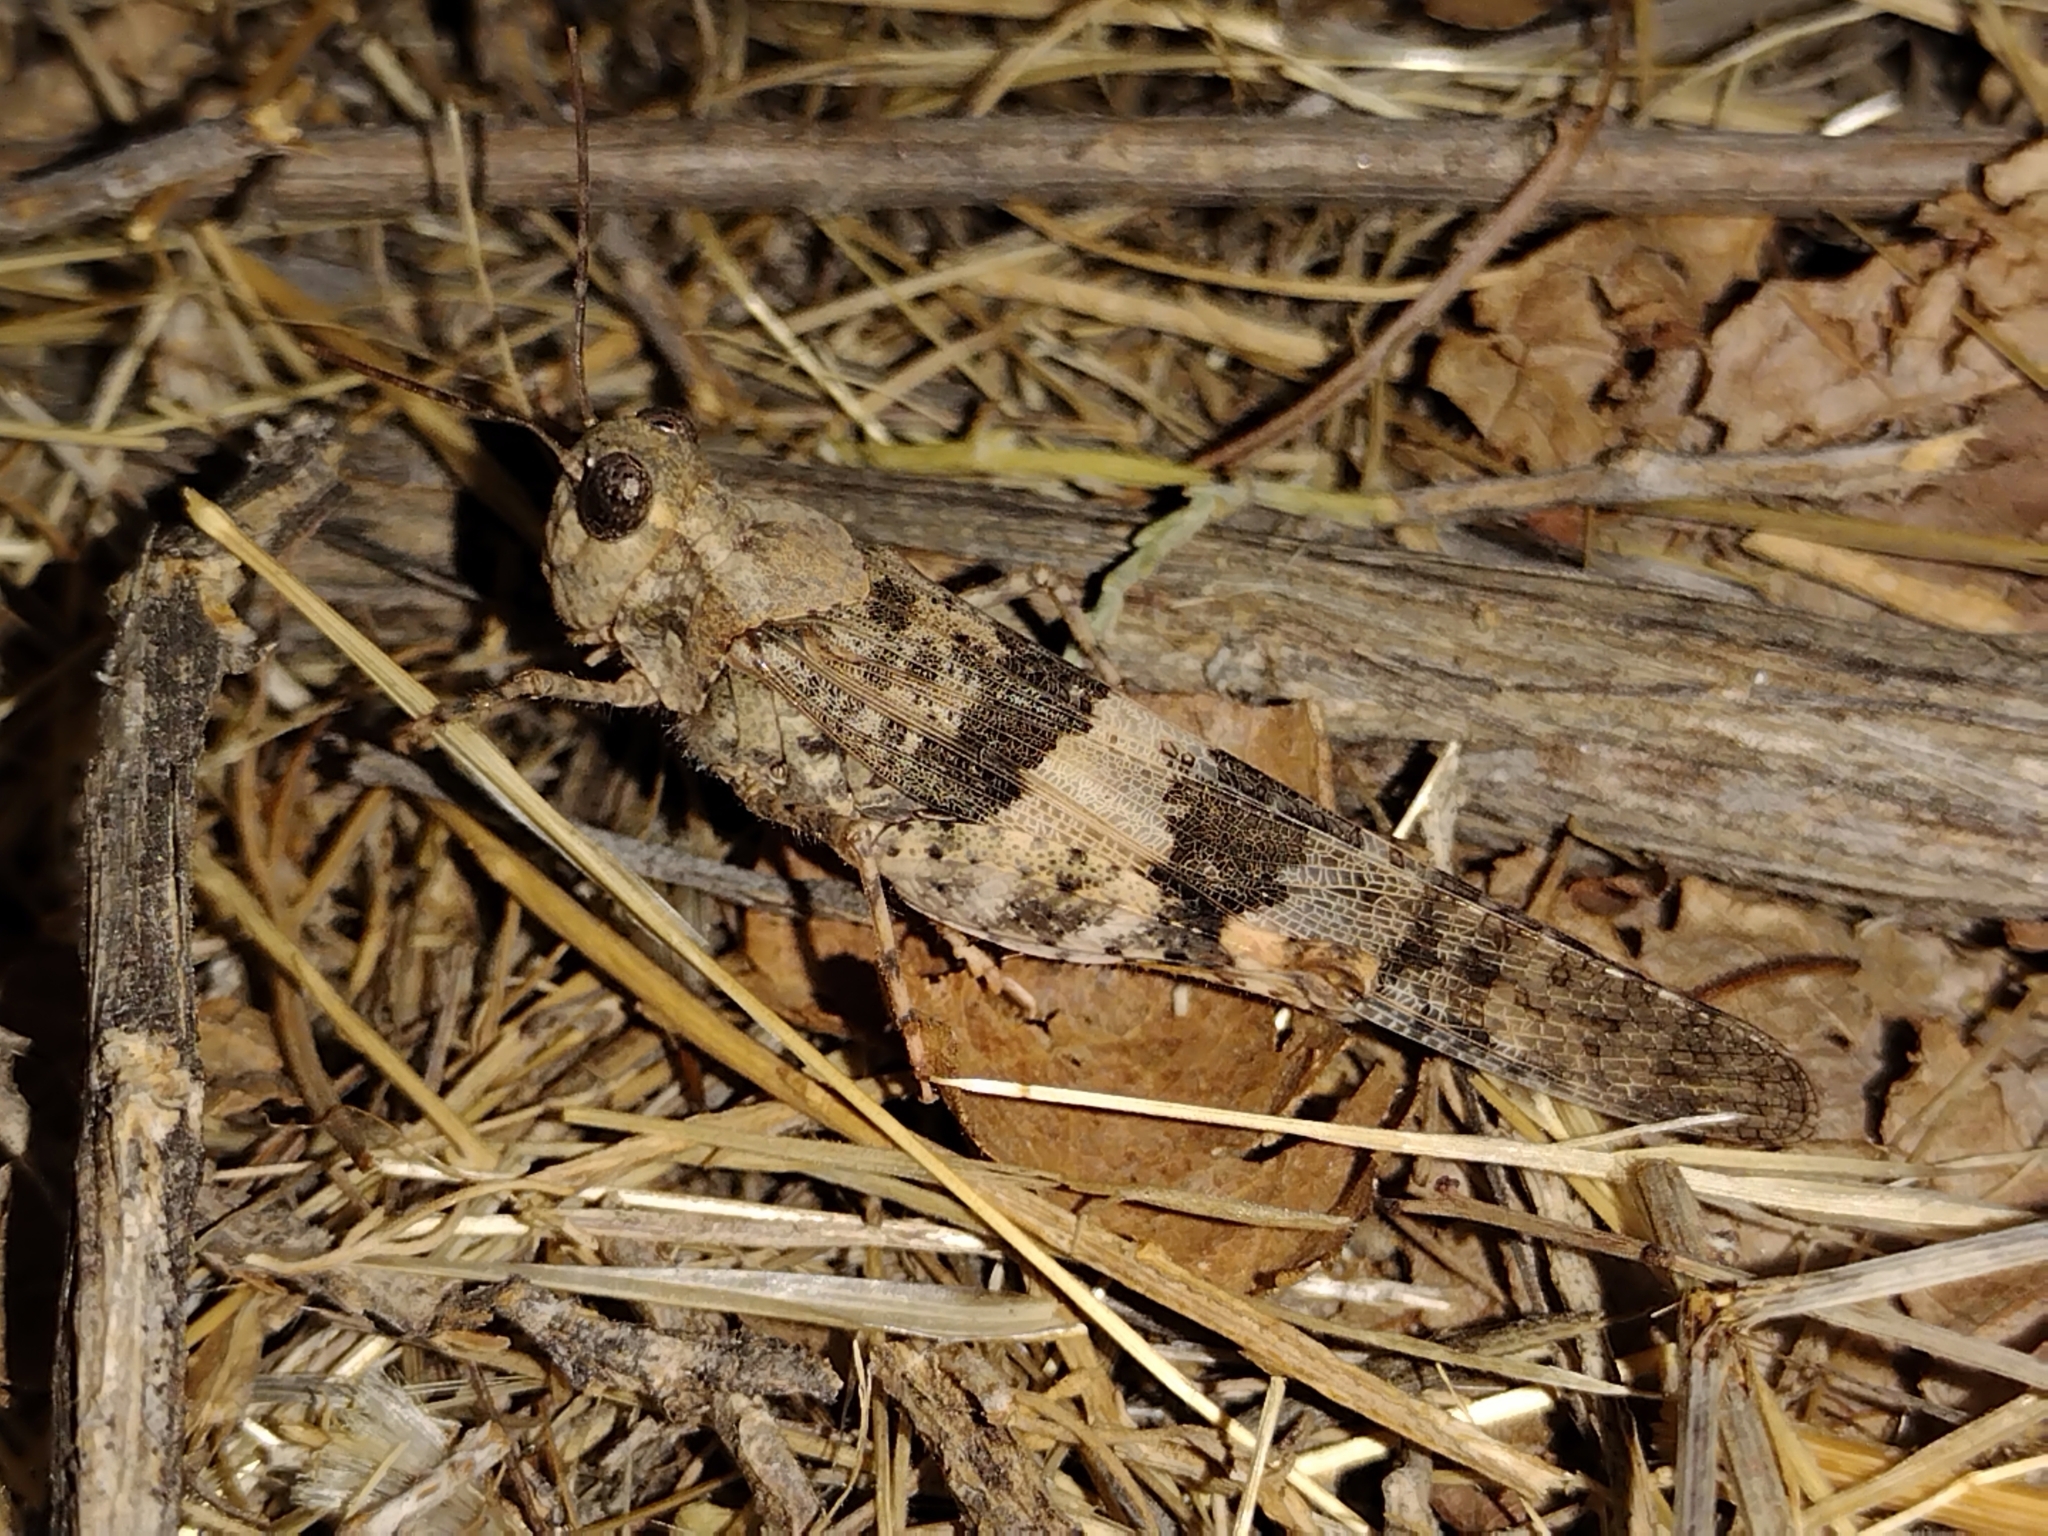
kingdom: Animalia
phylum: Arthropoda
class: Insecta
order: Orthoptera
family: Acrididae
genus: Trimerotropis
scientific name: Trimerotropis pallidipennis
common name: Pallid-winged grasshopper
